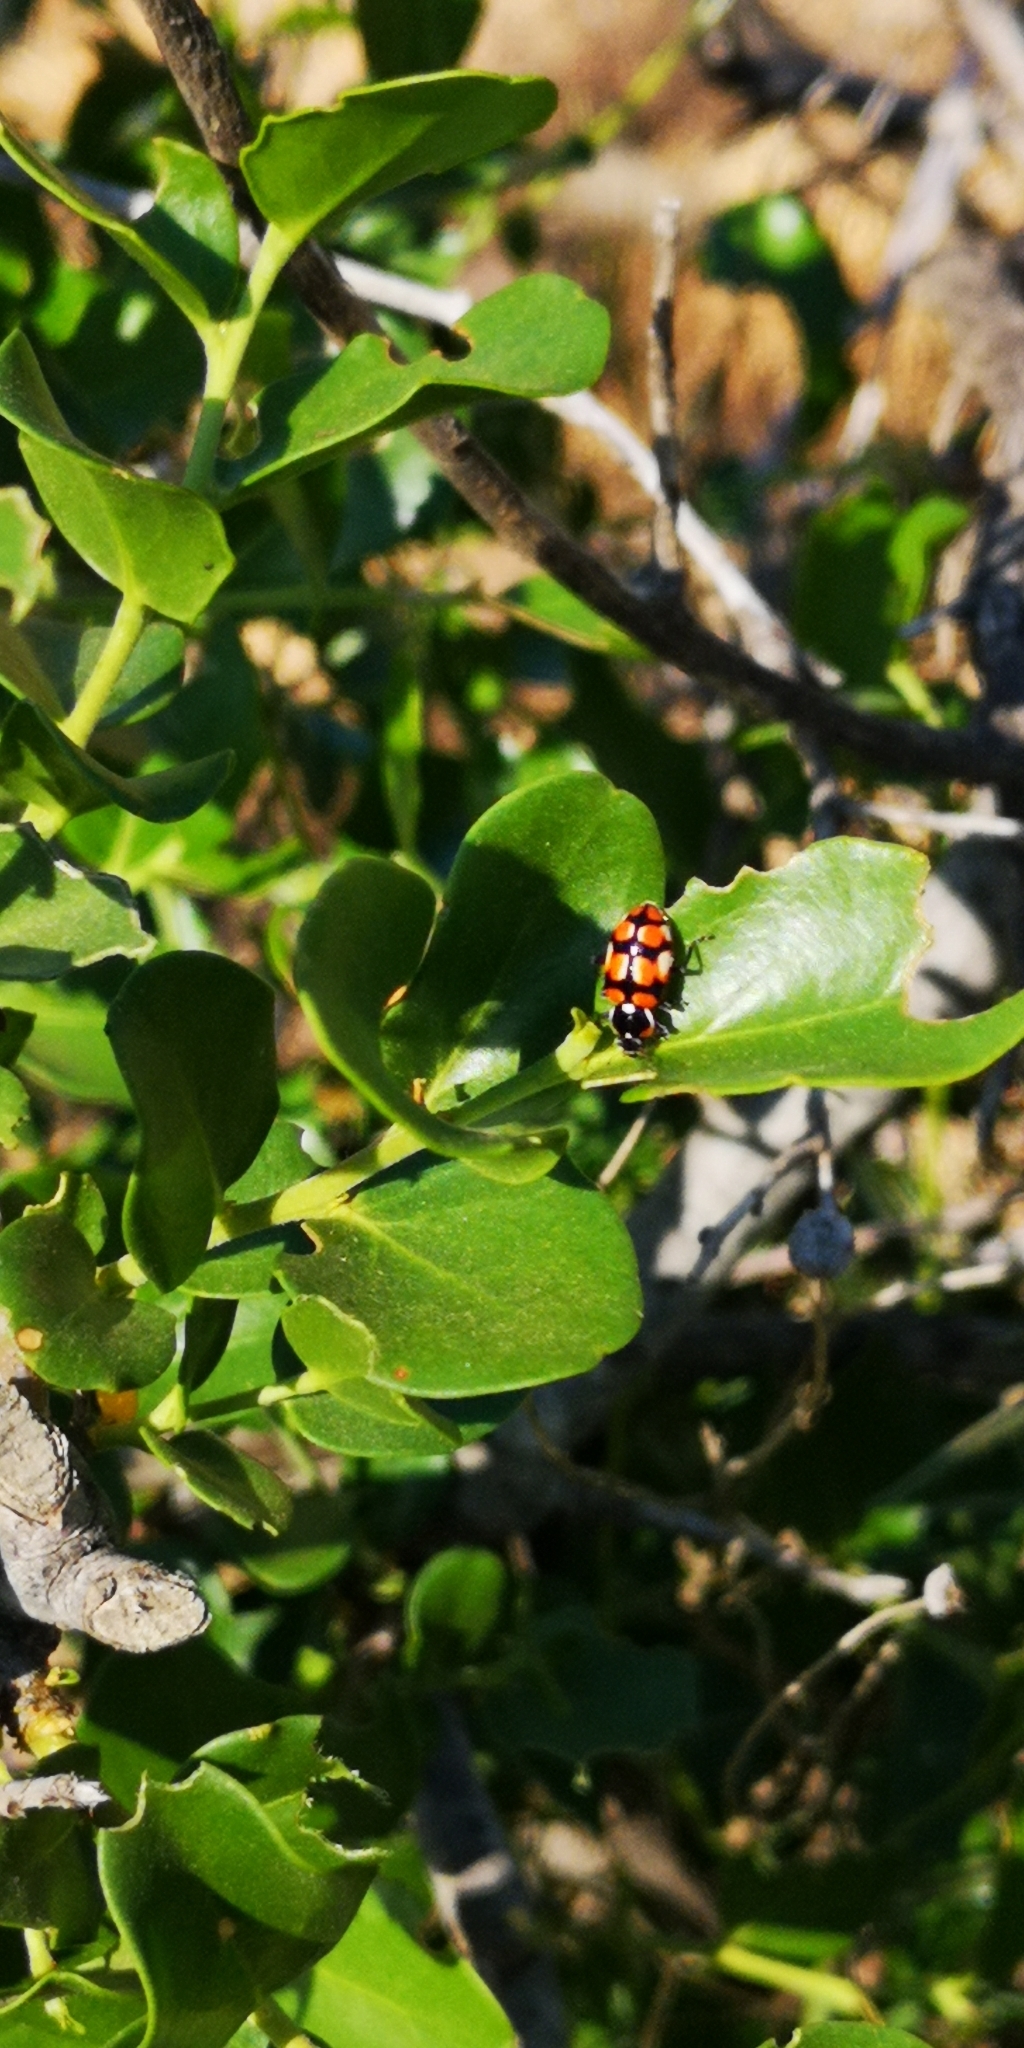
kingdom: Animalia
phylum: Arthropoda
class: Insecta
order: Coleoptera
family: Coccinellidae
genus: Eriopis
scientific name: Eriopis chilensis
